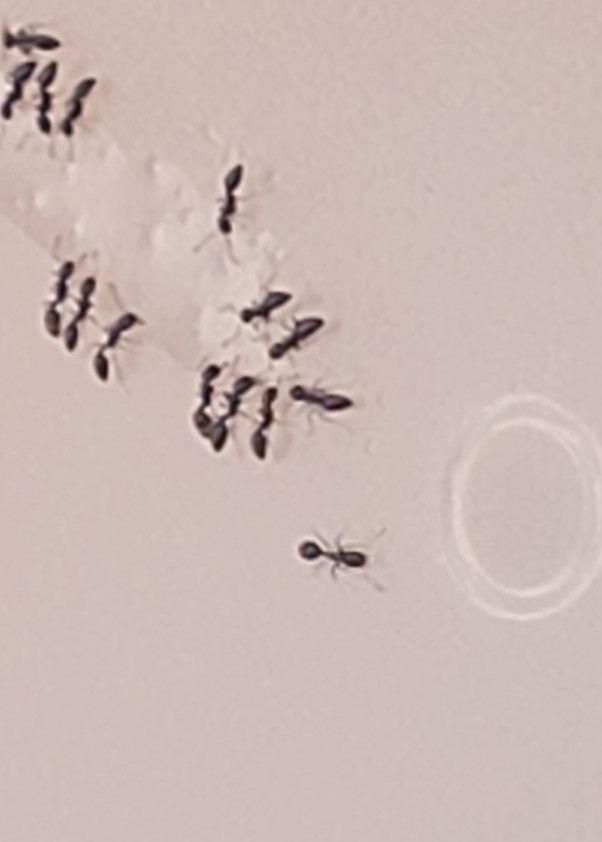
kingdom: Animalia
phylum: Arthropoda
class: Insecta
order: Hymenoptera
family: Formicidae
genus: Monomorium
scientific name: Monomorium minimum
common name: Little black ant
